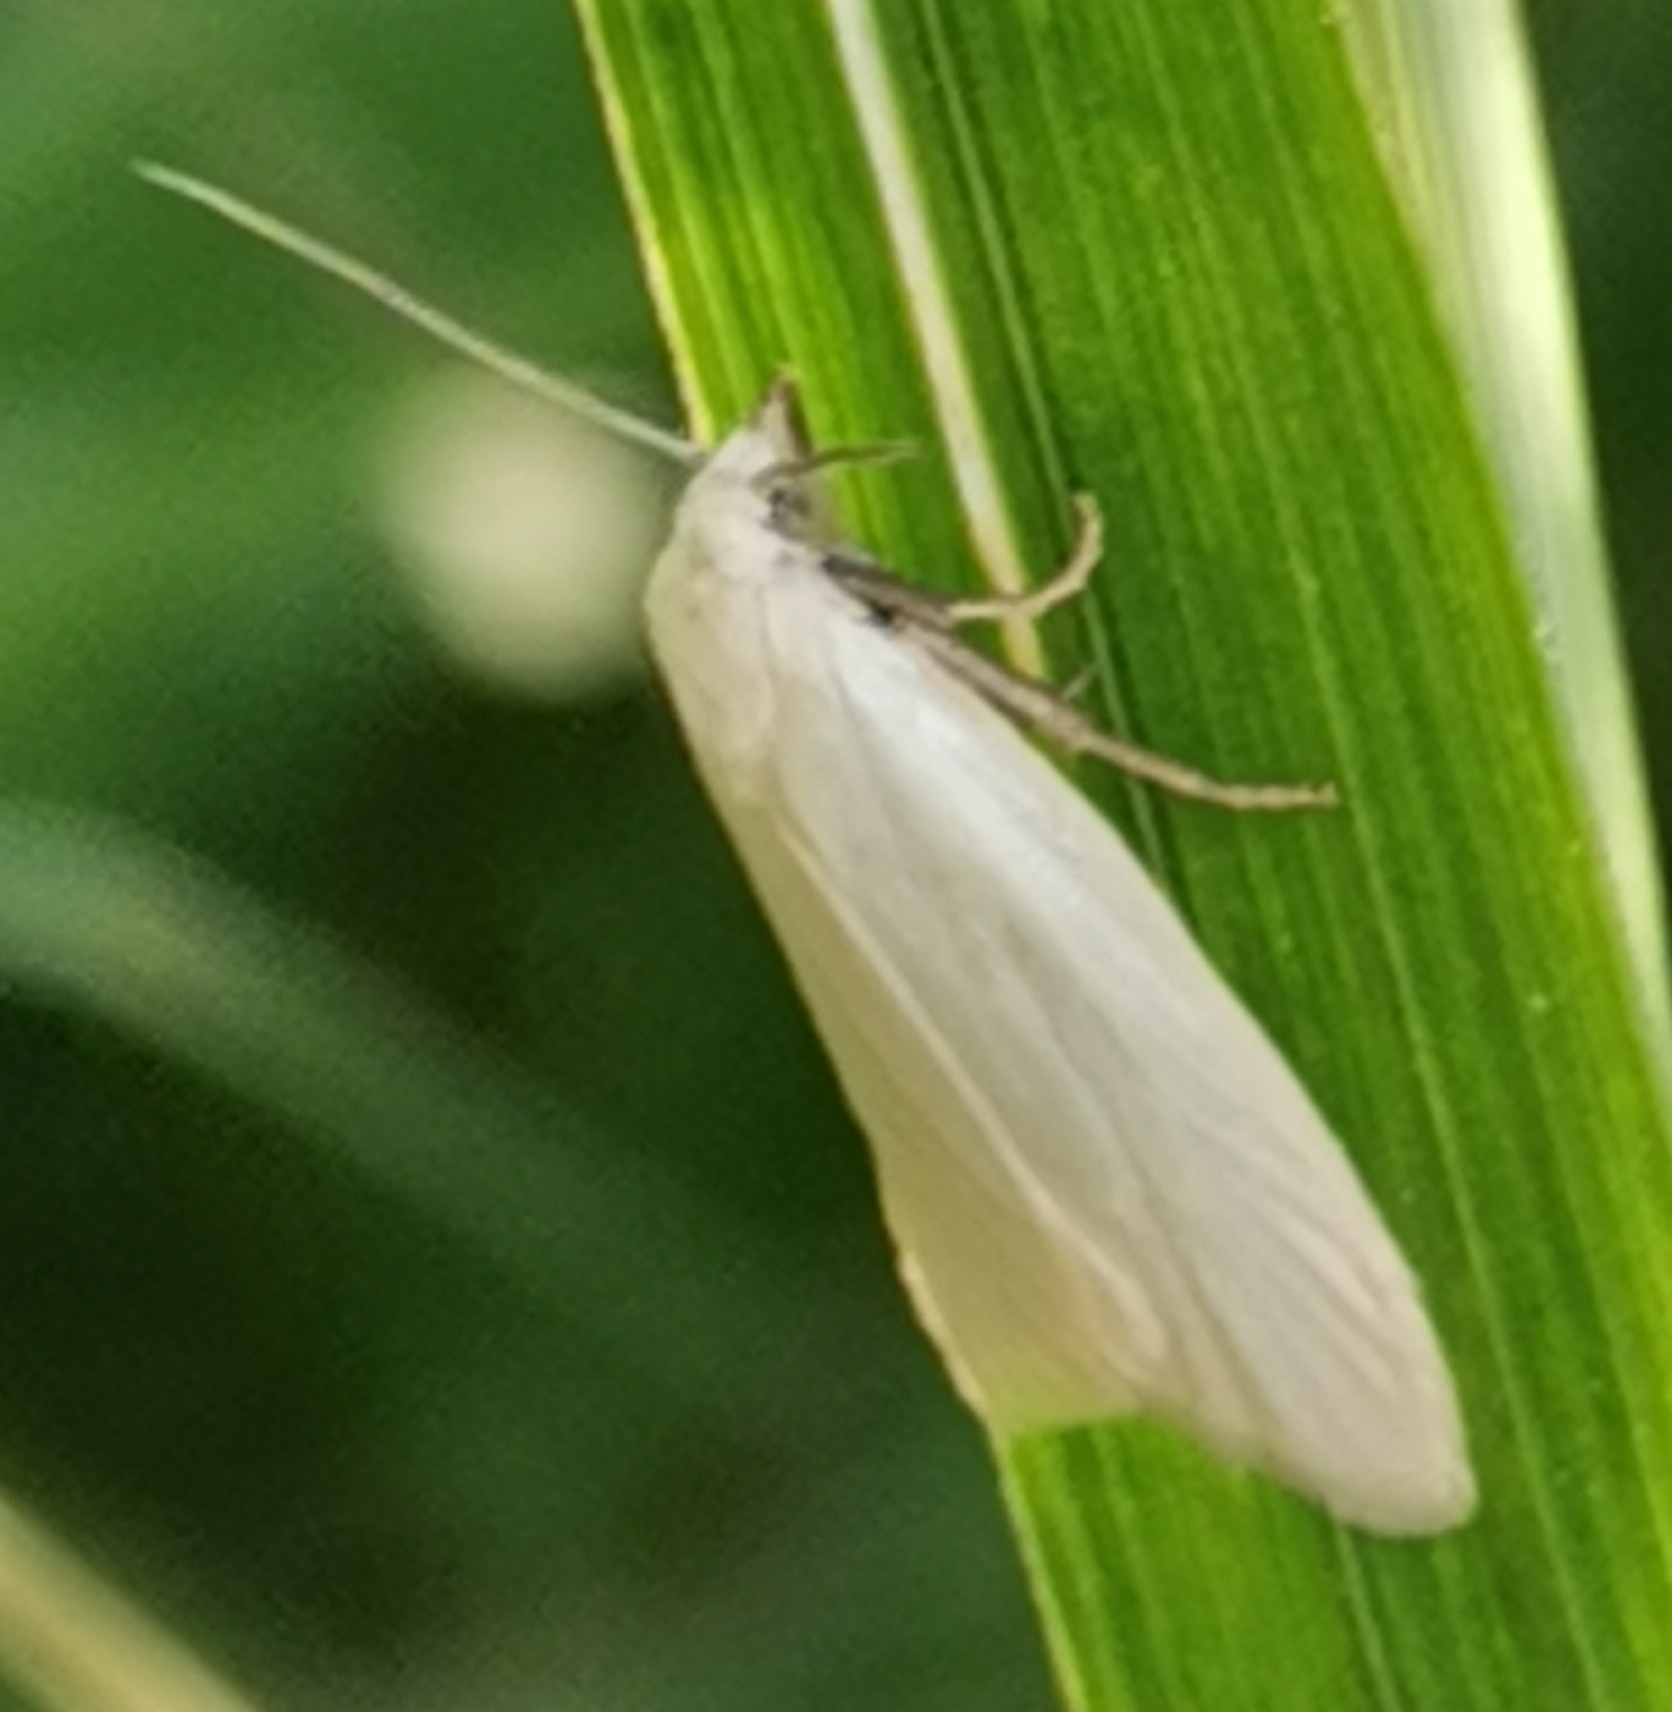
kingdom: Animalia
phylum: Arthropoda
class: Insecta
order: Lepidoptera
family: Tortricidae
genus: Eana
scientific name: Eana argentana
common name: Silver shade
